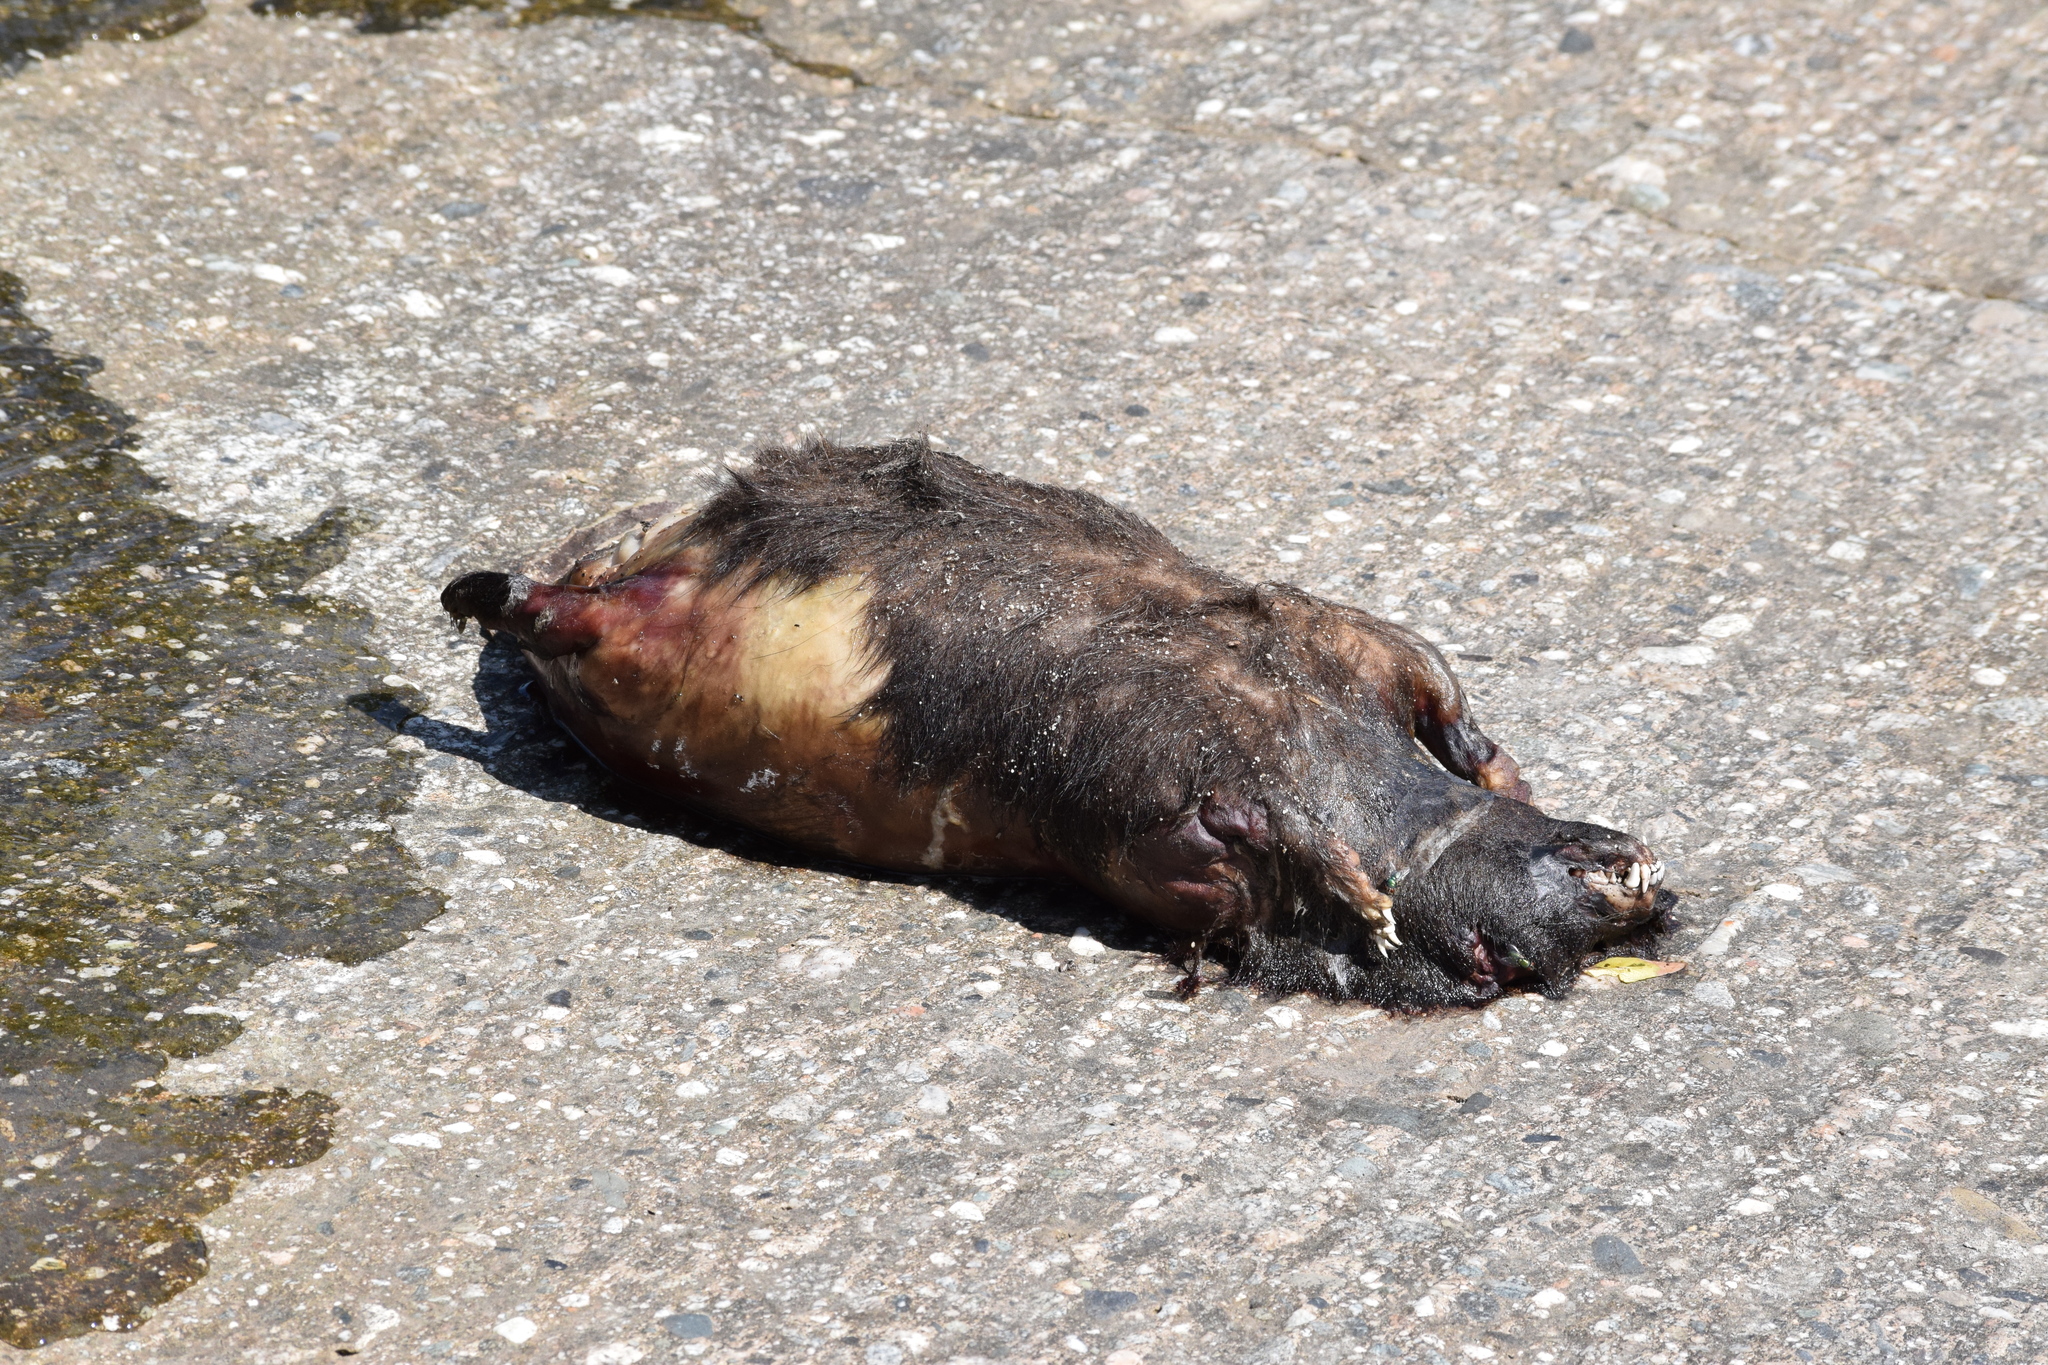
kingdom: Animalia
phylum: Chordata
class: Mammalia
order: Carnivora
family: Mephitidae
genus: Mephitis
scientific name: Mephitis mephitis
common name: Striped skunk
